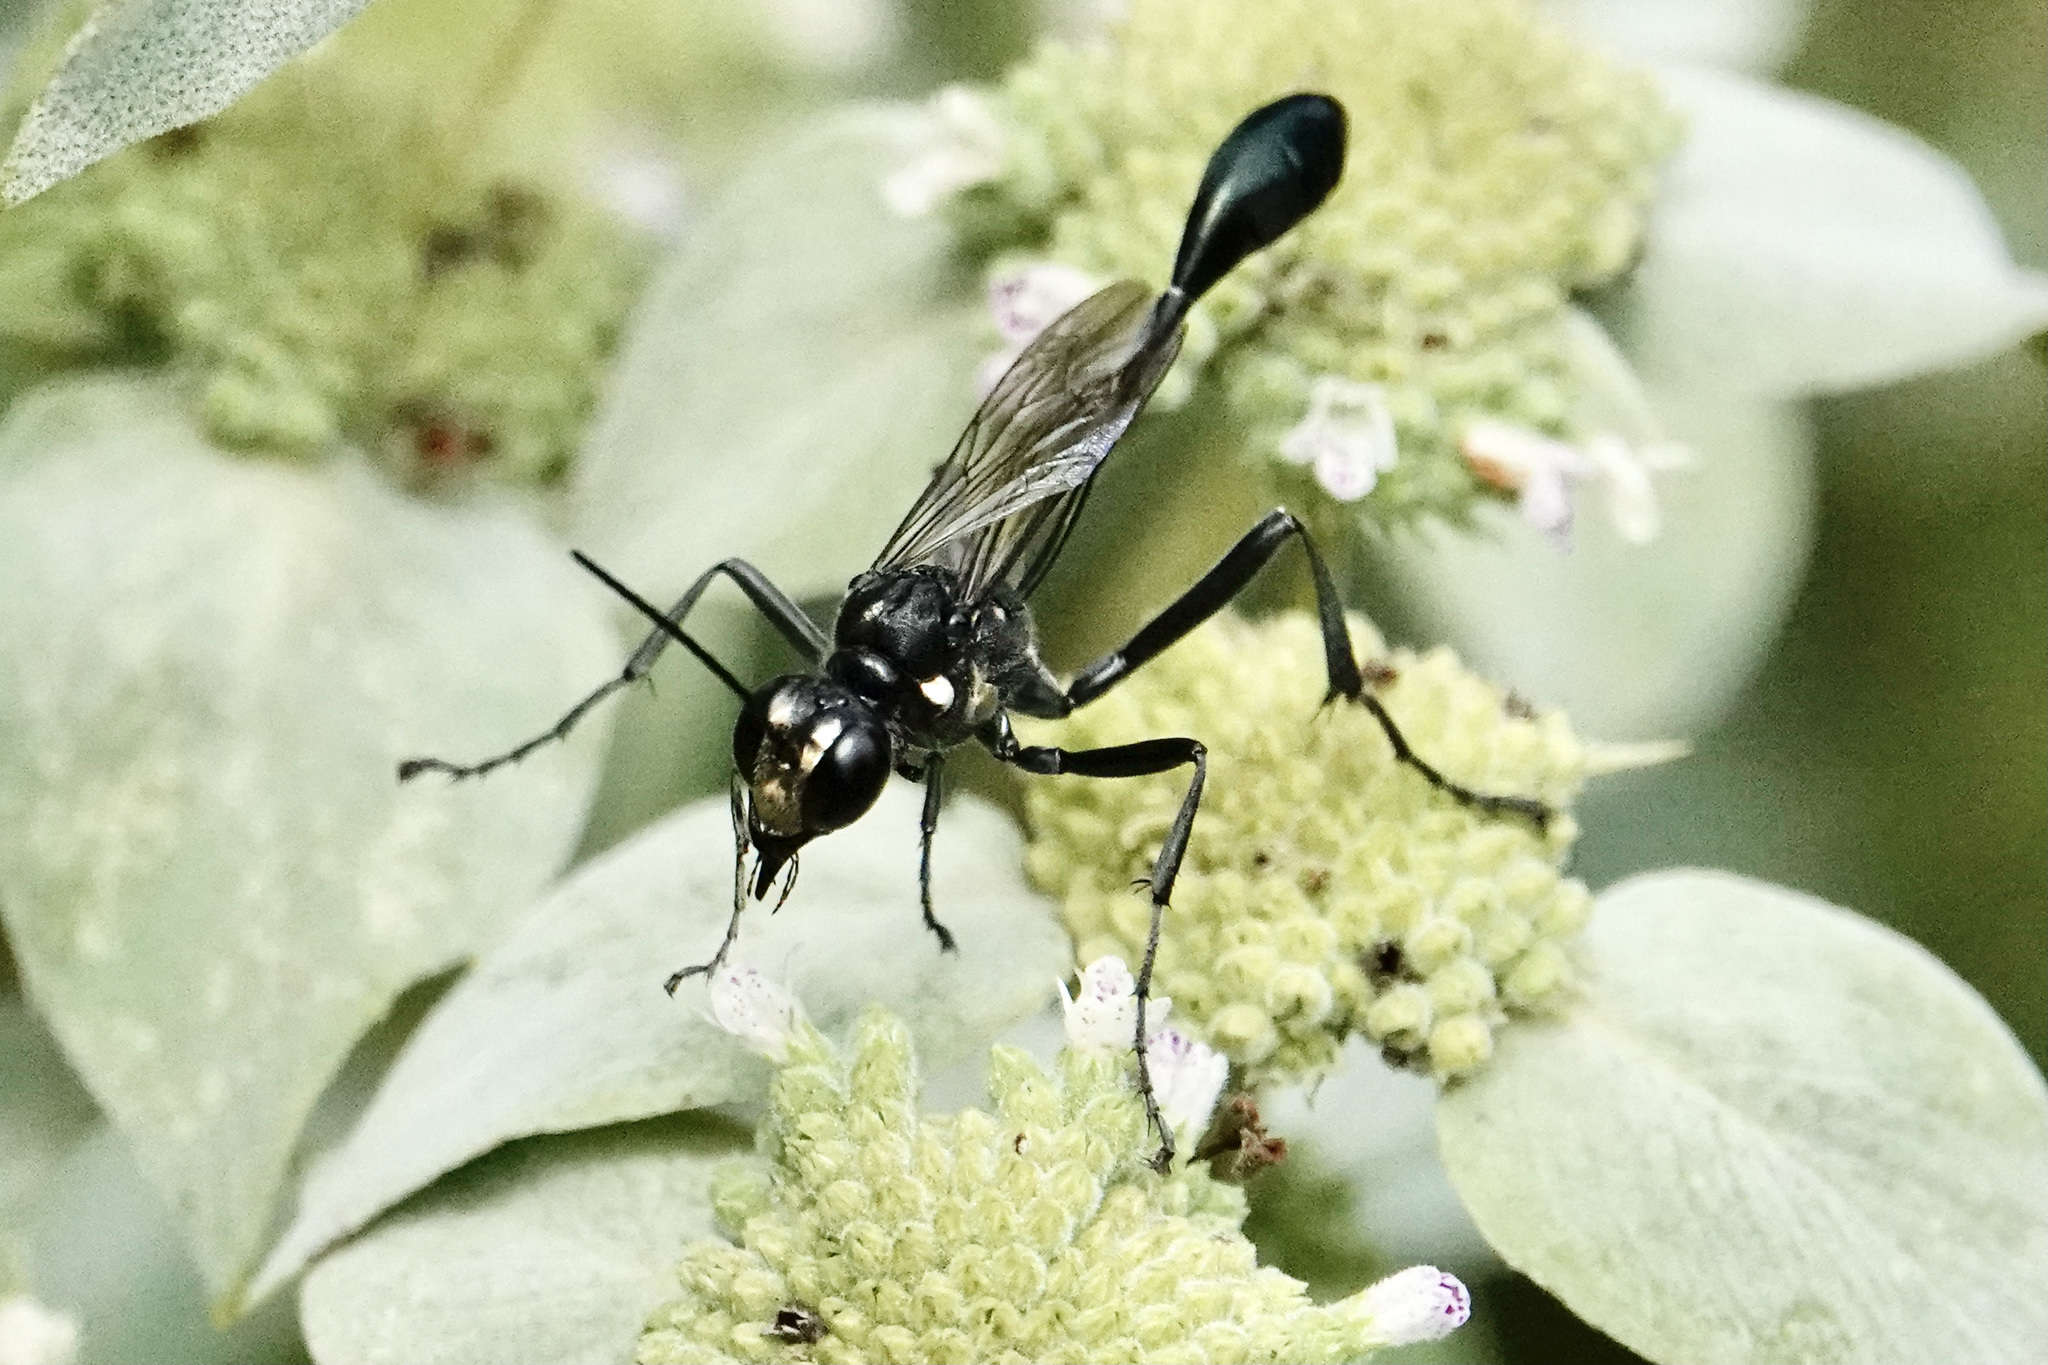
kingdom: Animalia
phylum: Arthropoda
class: Insecta
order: Hymenoptera
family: Sphecidae
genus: Eremnophila
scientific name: Eremnophila aureonotata
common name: Gold-marked thread-waisted wasp
